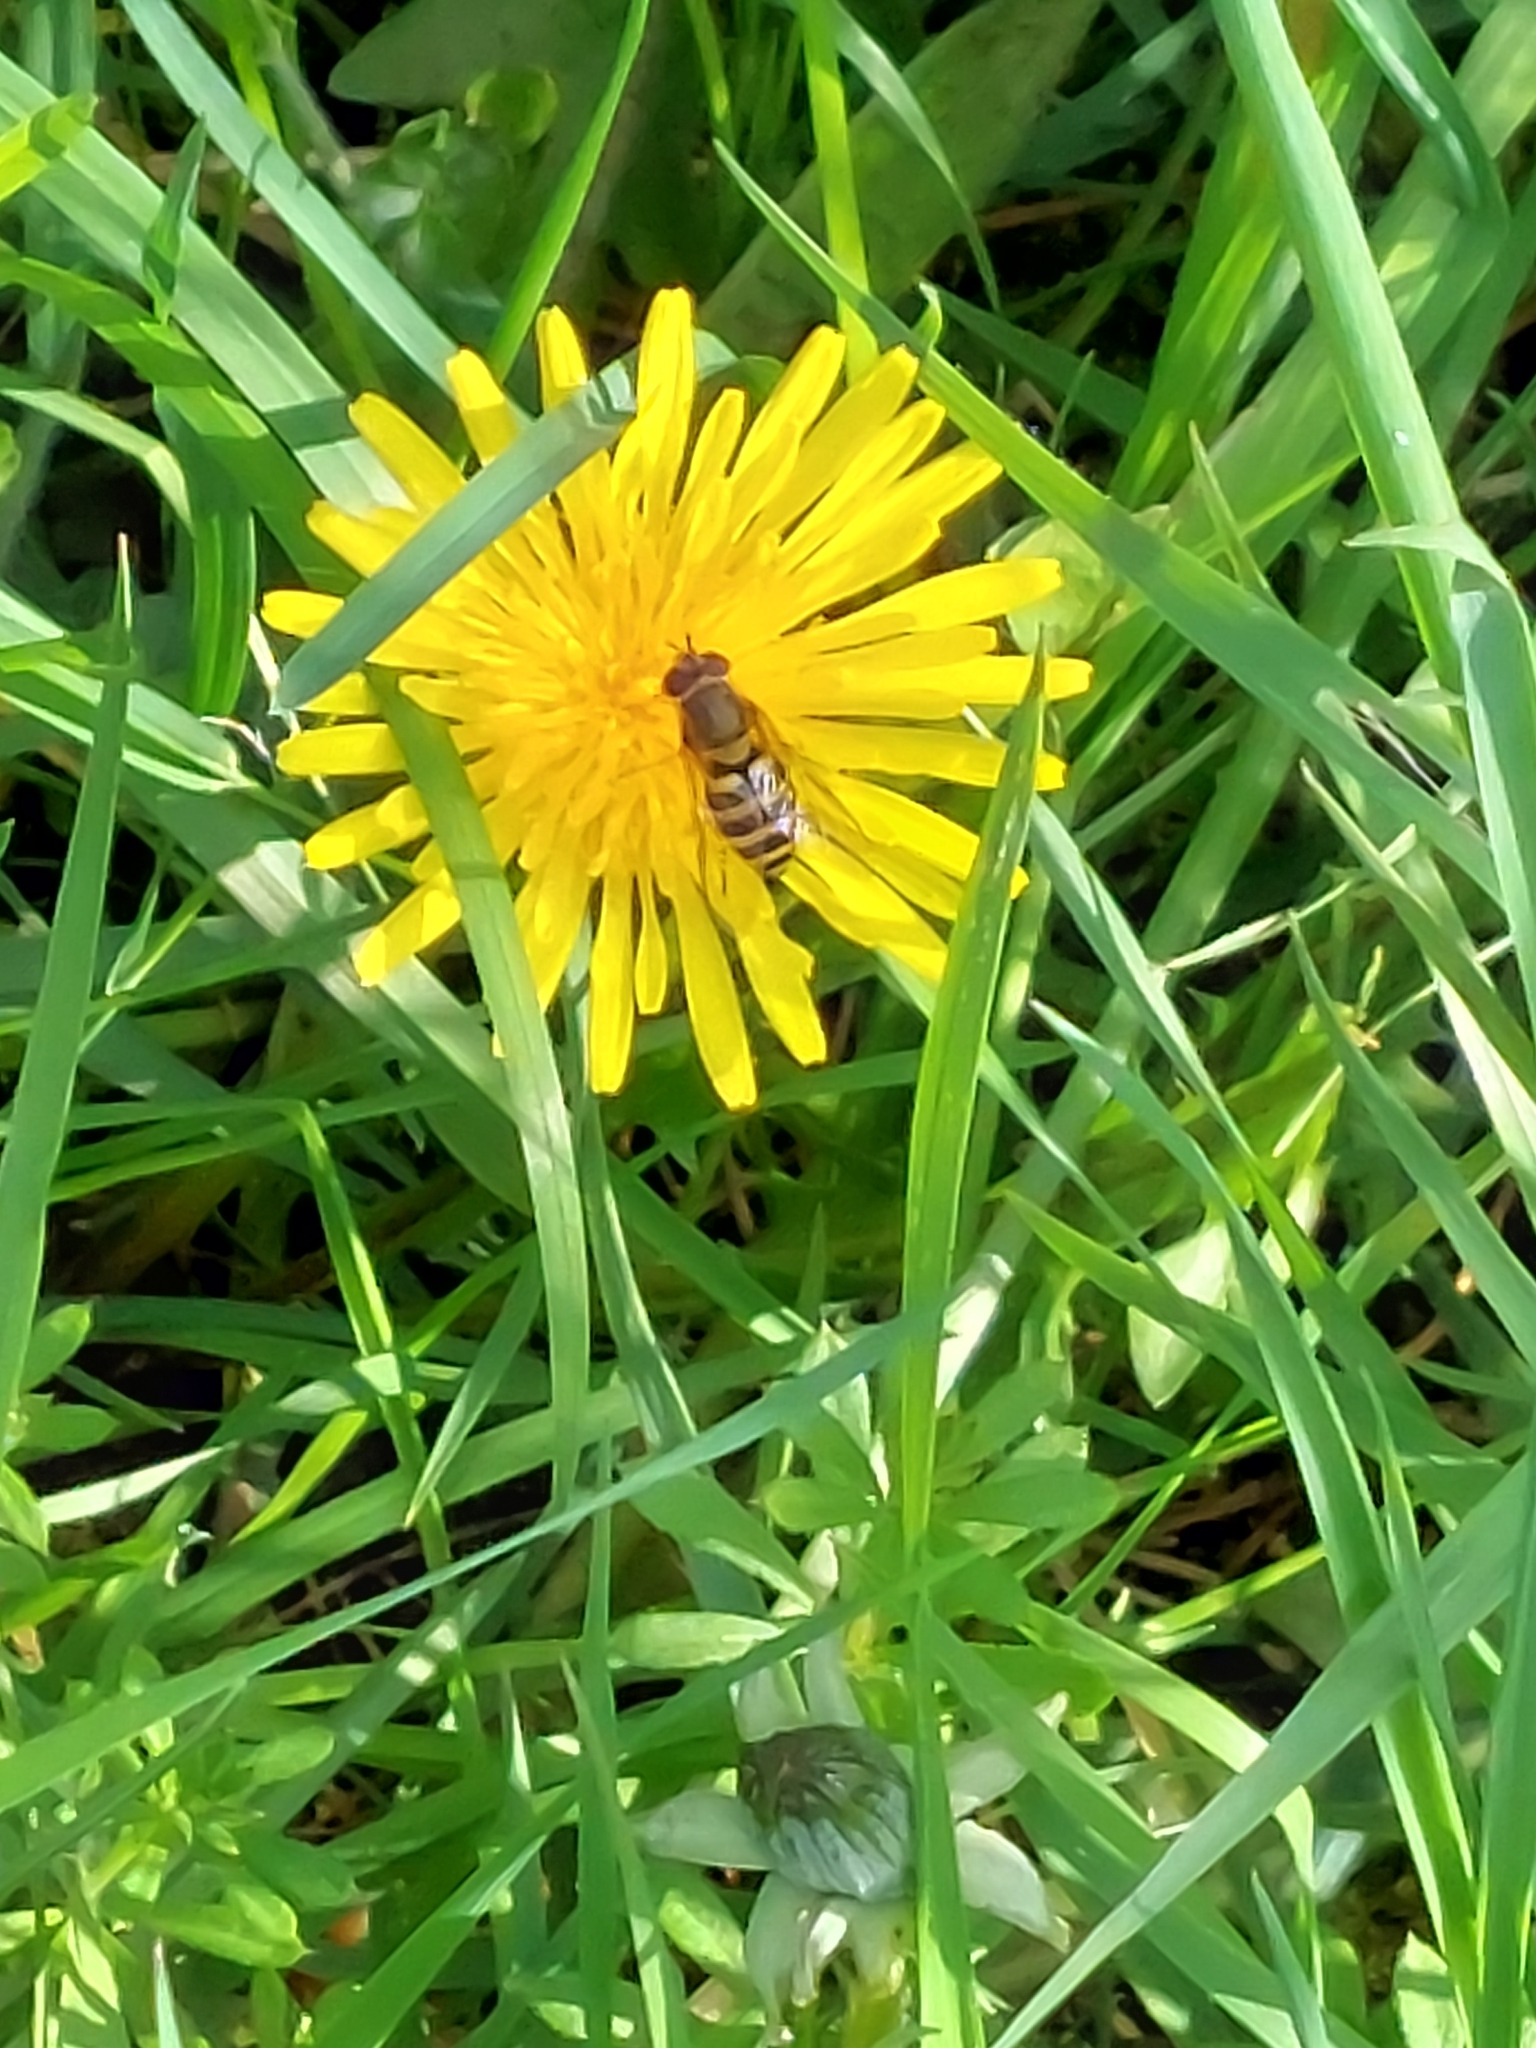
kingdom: Animalia
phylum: Arthropoda
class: Insecta
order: Diptera
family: Syrphidae
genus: Syrphus
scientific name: Syrphus
